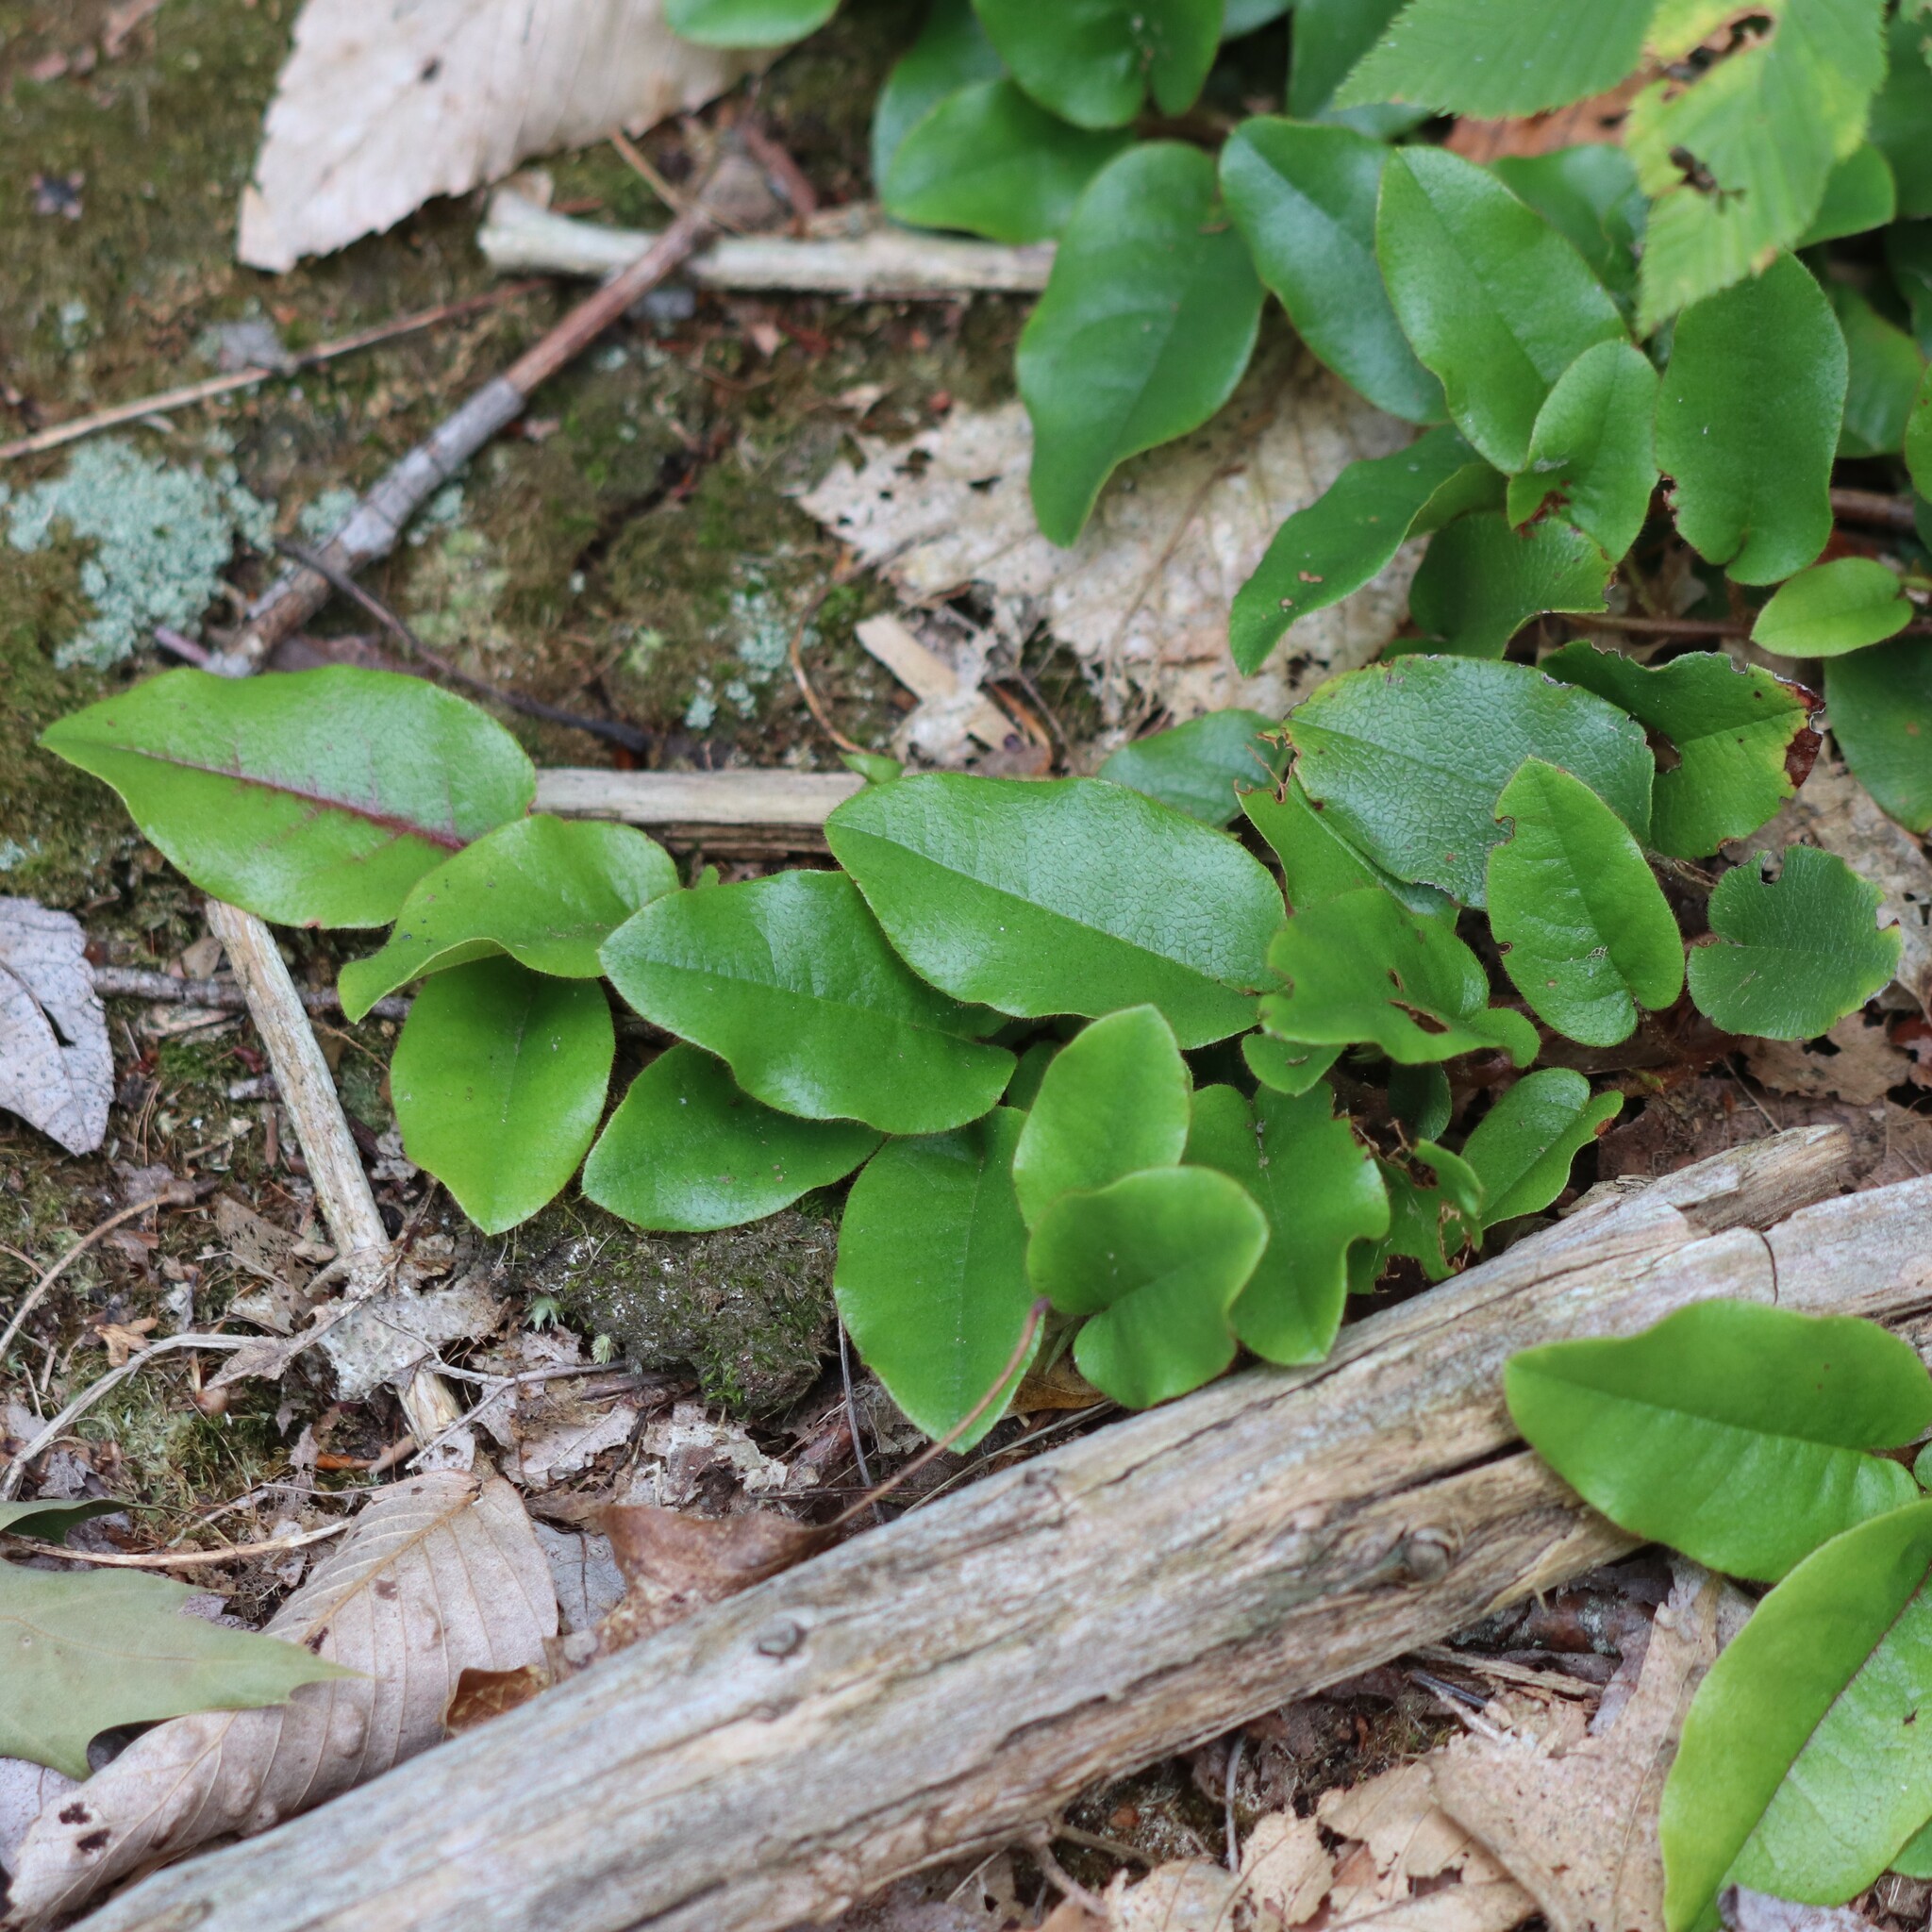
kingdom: Plantae
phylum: Tracheophyta
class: Magnoliopsida
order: Ericales
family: Ericaceae
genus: Epigaea
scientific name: Epigaea repens
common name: Gravelroot
